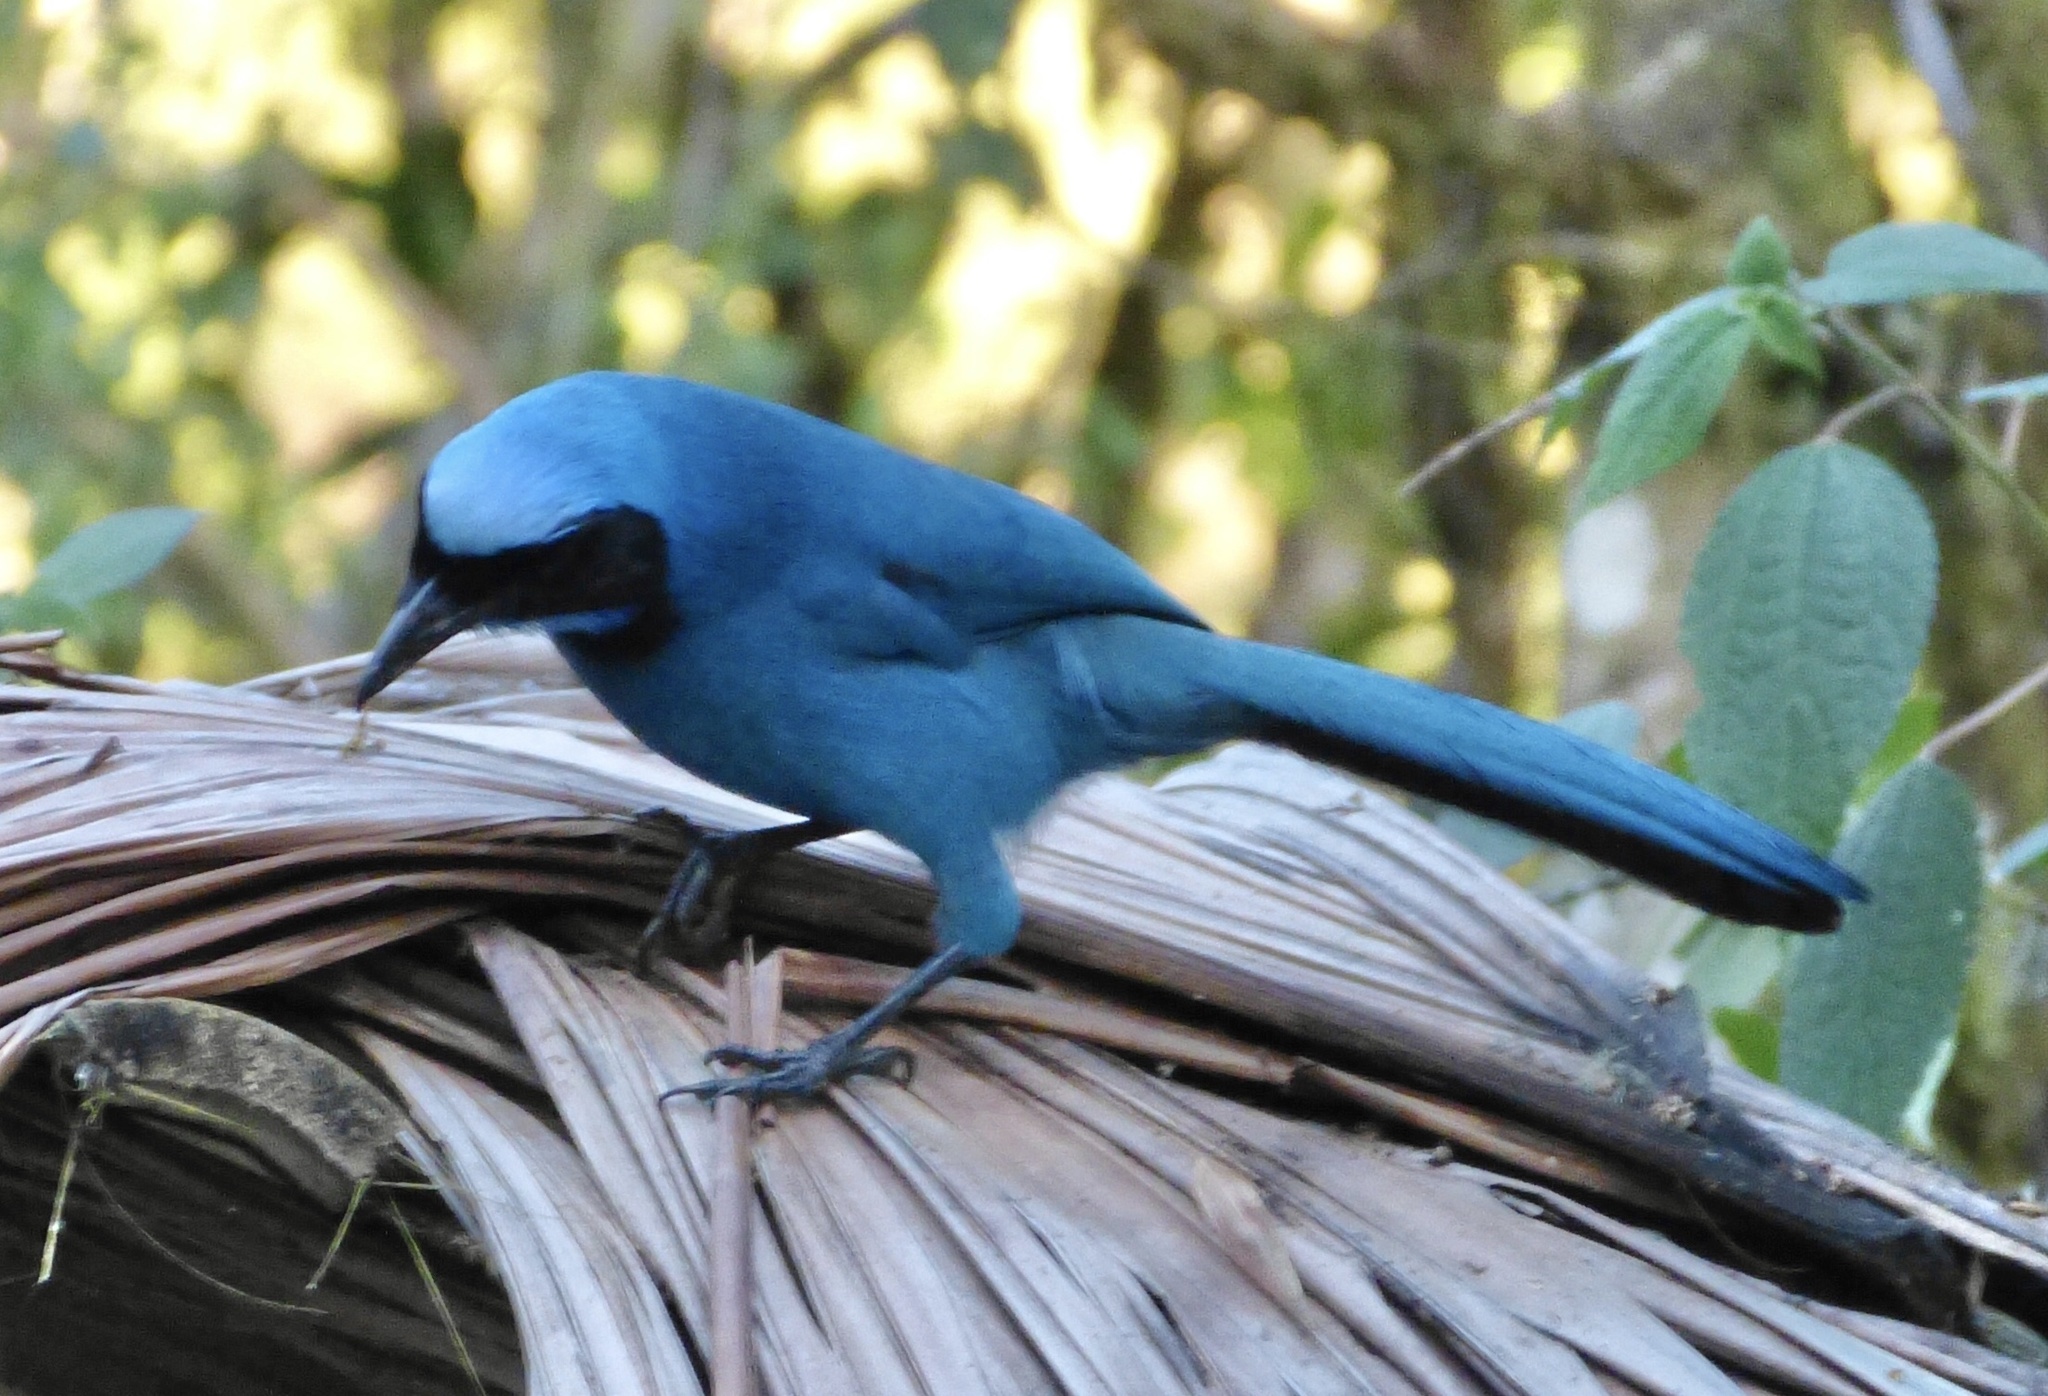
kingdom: Animalia
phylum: Chordata
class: Aves
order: Passeriformes
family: Corvidae
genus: Cyanolyca
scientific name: Cyanolyca turcosa
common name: Turquoise jay
